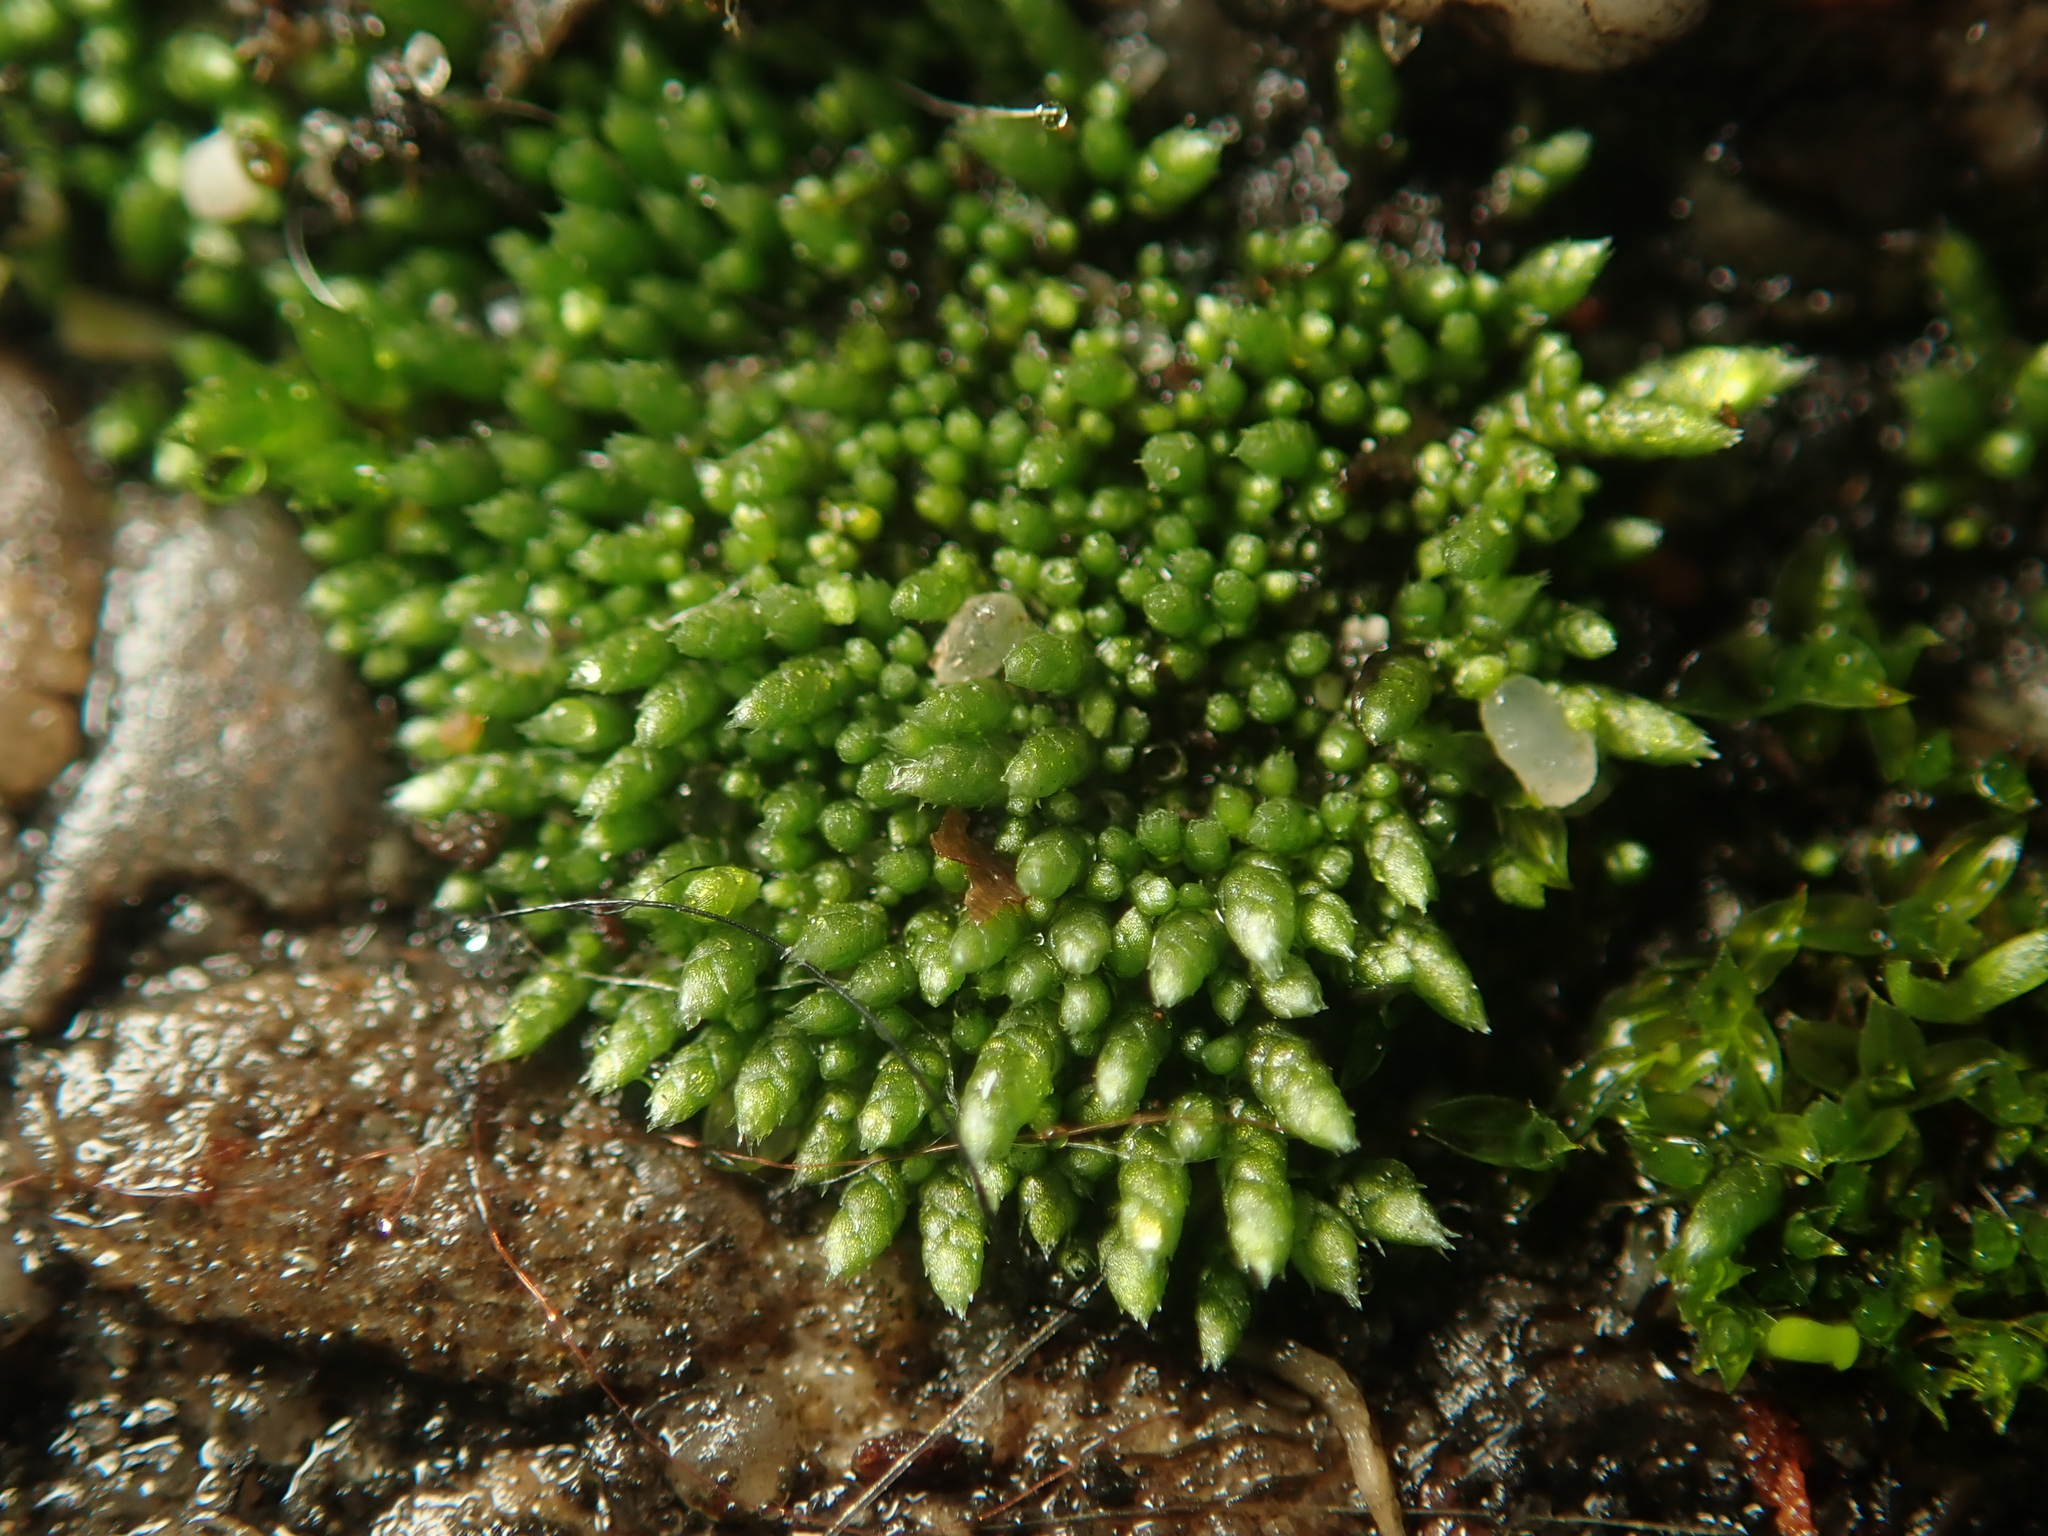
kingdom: Plantae
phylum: Bryophyta
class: Bryopsida
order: Bryales
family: Bryaceae
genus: Bryum
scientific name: Bryum argenteum
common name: Silver-moss
